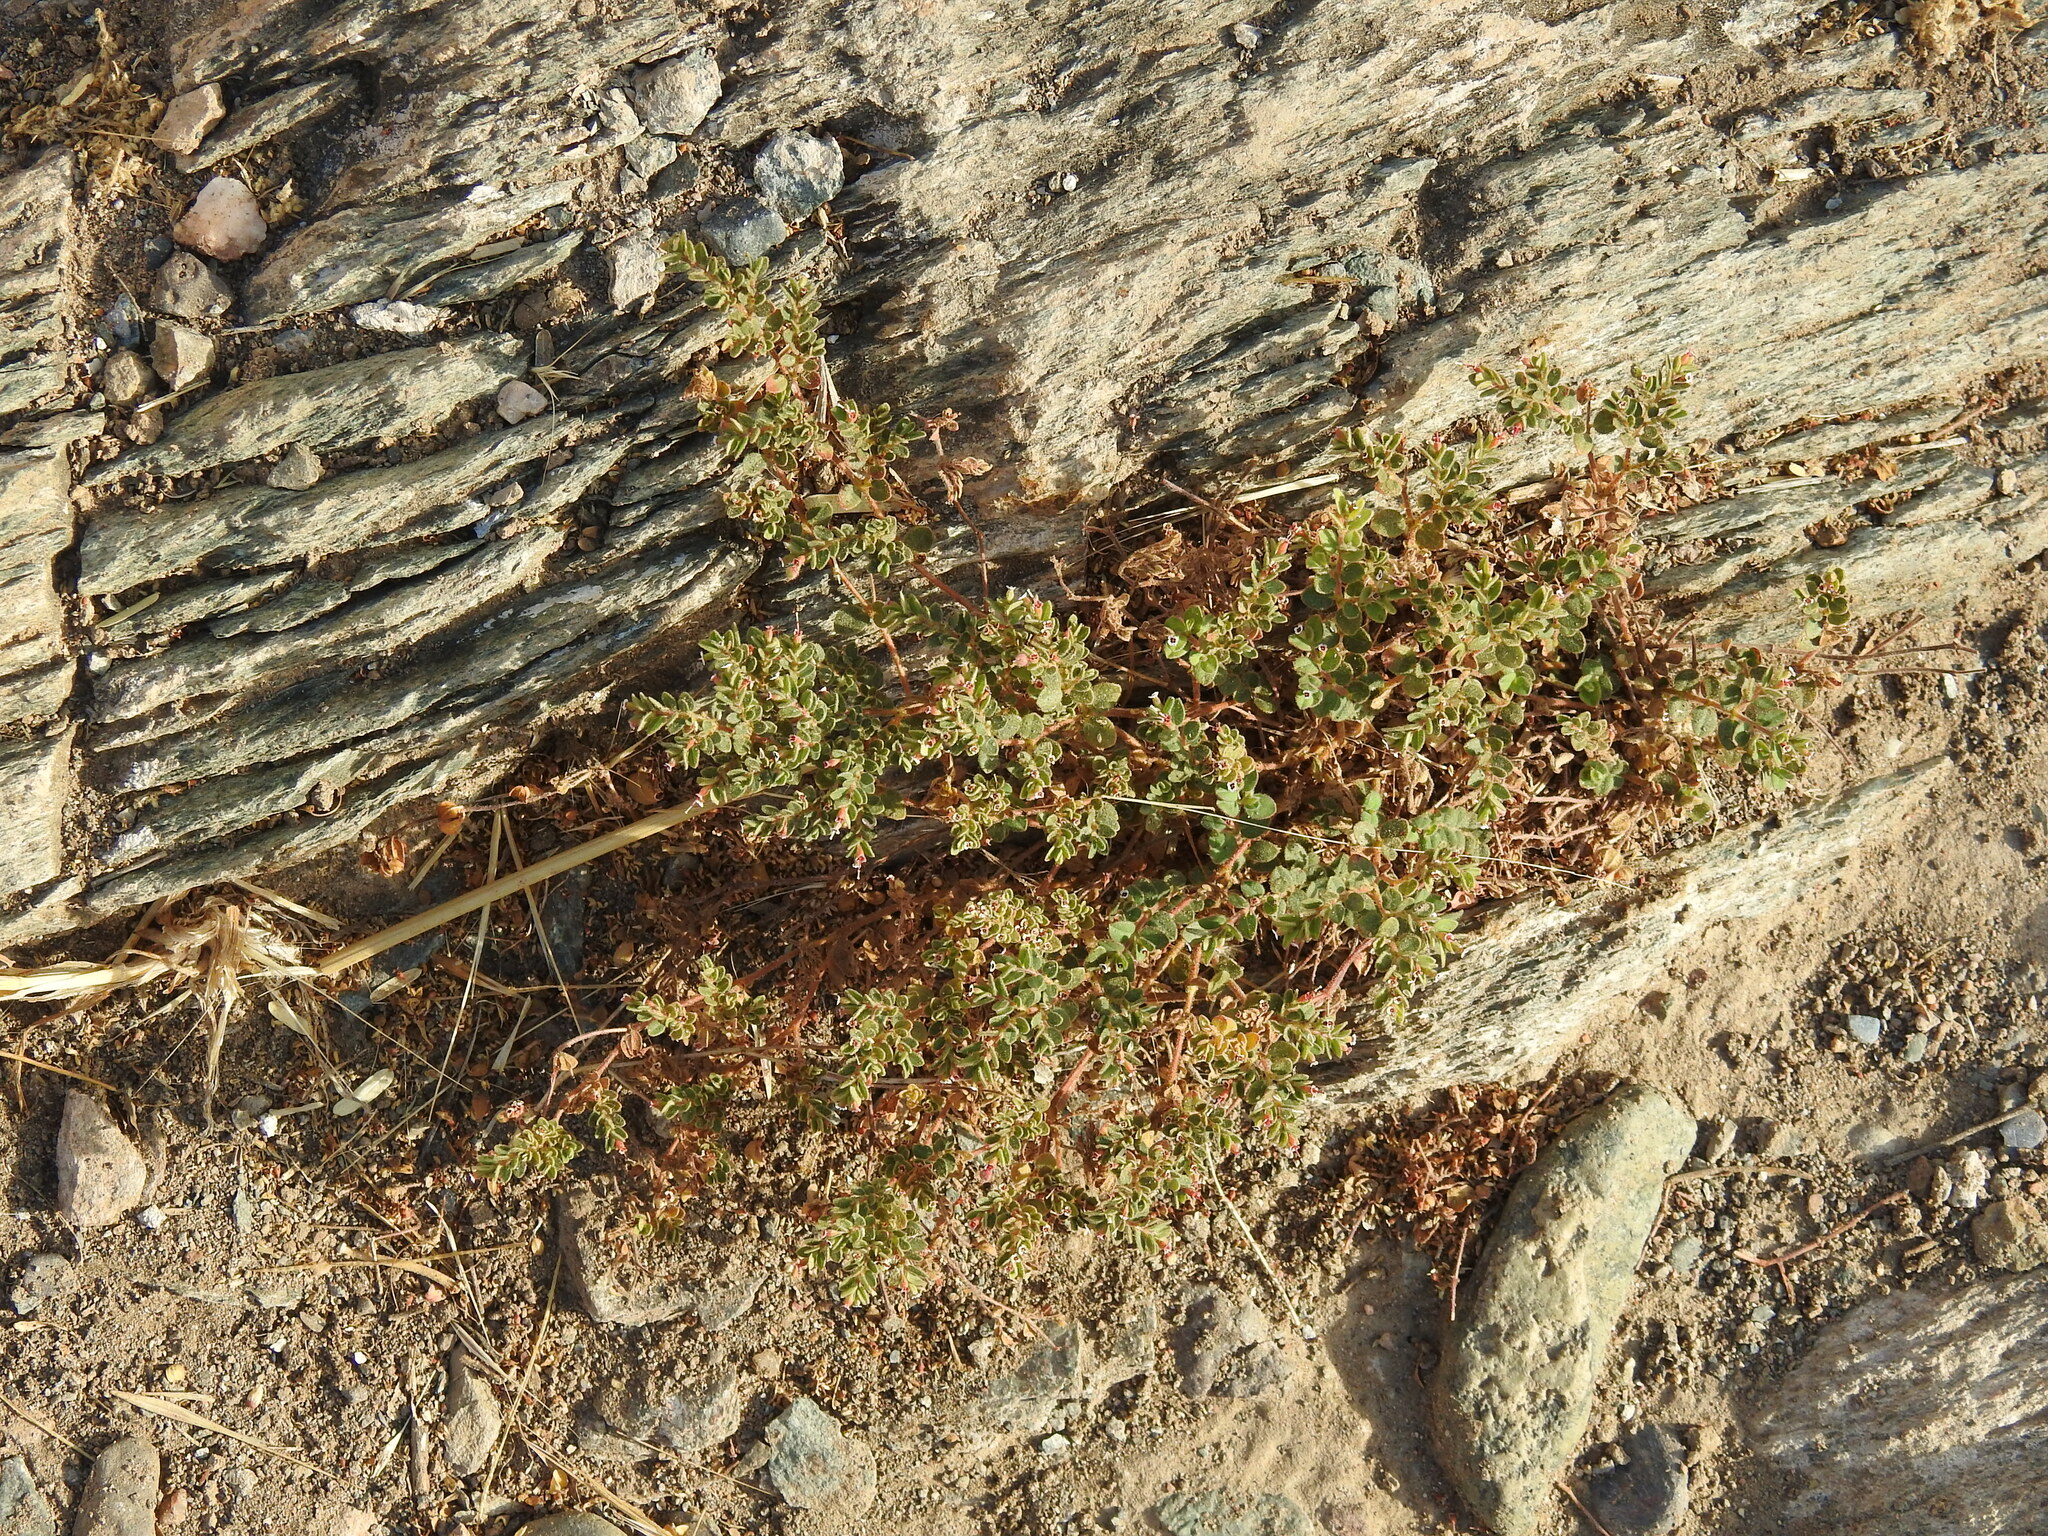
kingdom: Plantae
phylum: Tracheophyta
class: Magnoliopsida
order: Malpighiales
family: Euphorbiaceae
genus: Euphorbia
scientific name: Euphorbia arizonica
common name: Arizona spurge
